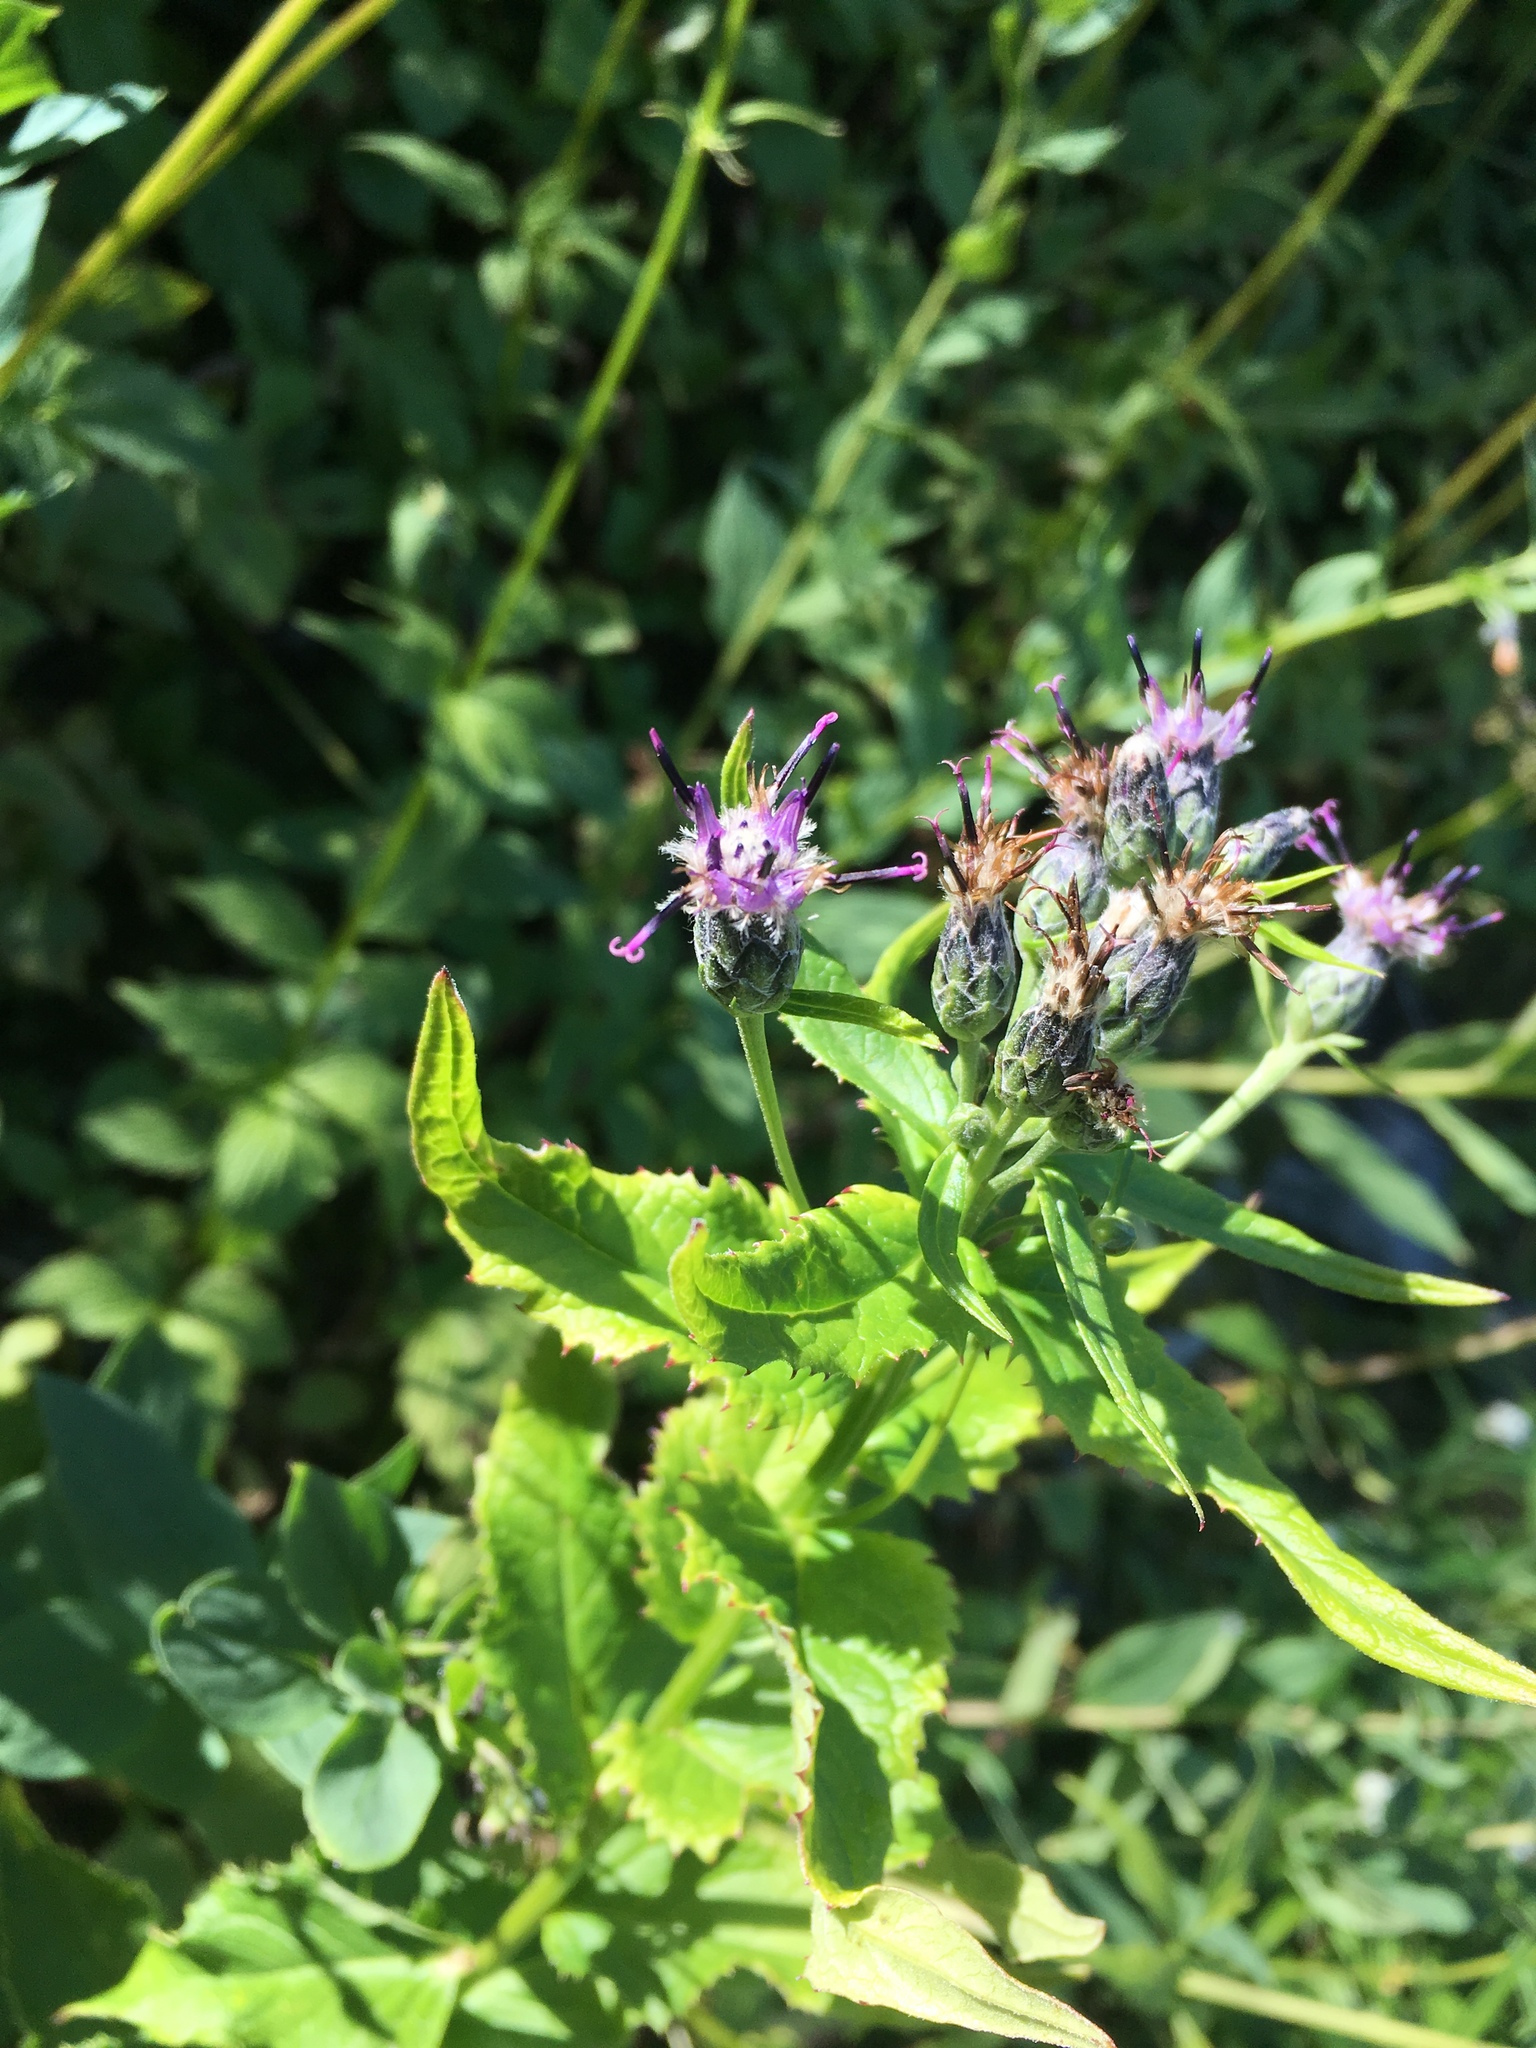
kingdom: Plantae
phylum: Tracheophyta
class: Magnoliopsida
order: Asterales
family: Asteraceae
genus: Saussurea
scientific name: Saussurea americana
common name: American saw-wort
